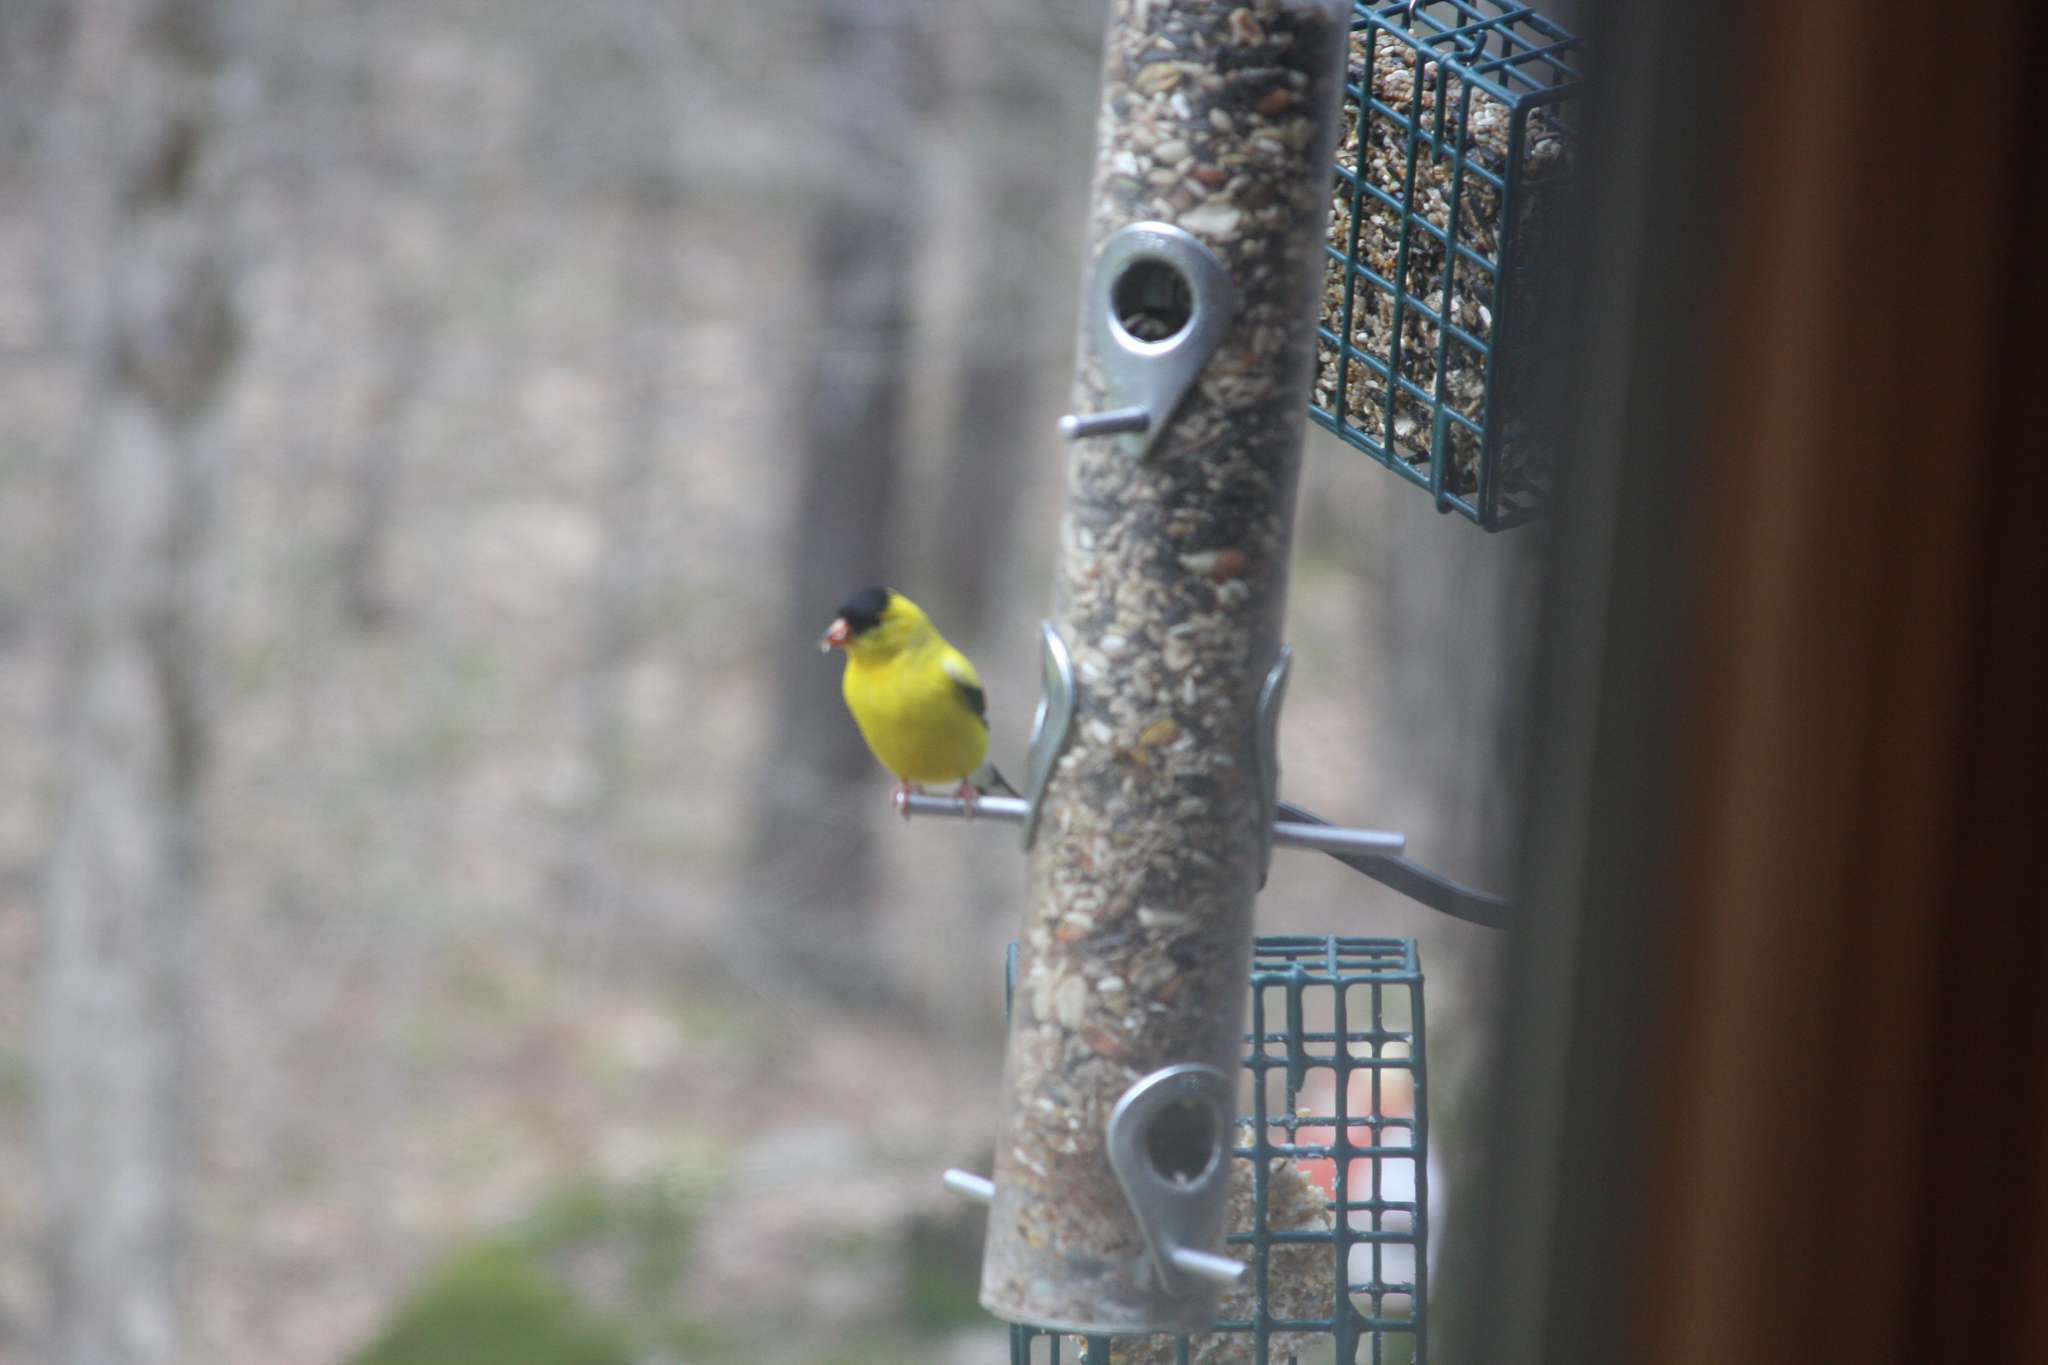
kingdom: Animalia
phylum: Chordata
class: Aves
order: Passeriformes
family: Fringillidae
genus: Spinus
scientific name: Spinus tristis
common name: American goldfinch
